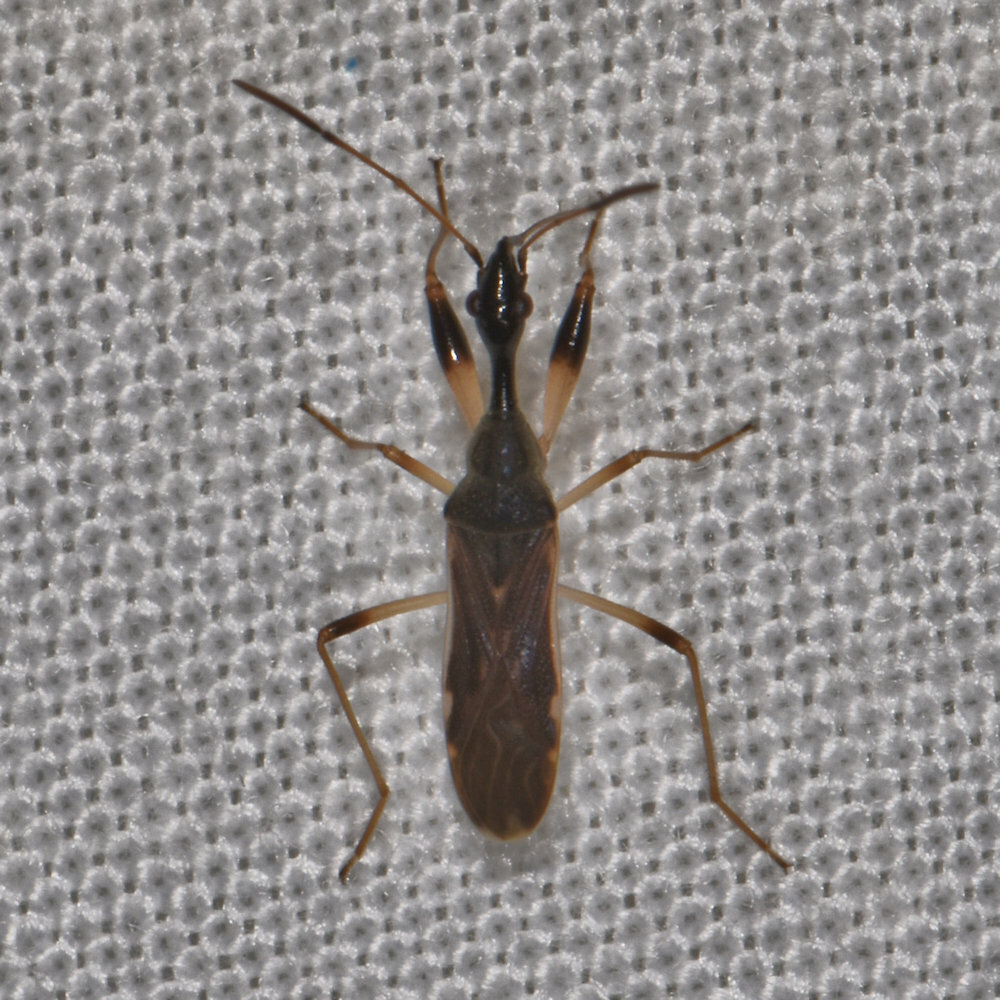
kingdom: Animalia
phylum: Arthropoda
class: Insecta
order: Hemiptera
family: Rhyparochromidae
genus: Myodocha
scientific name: Myodocha serripes
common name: Long-necked seed bug
